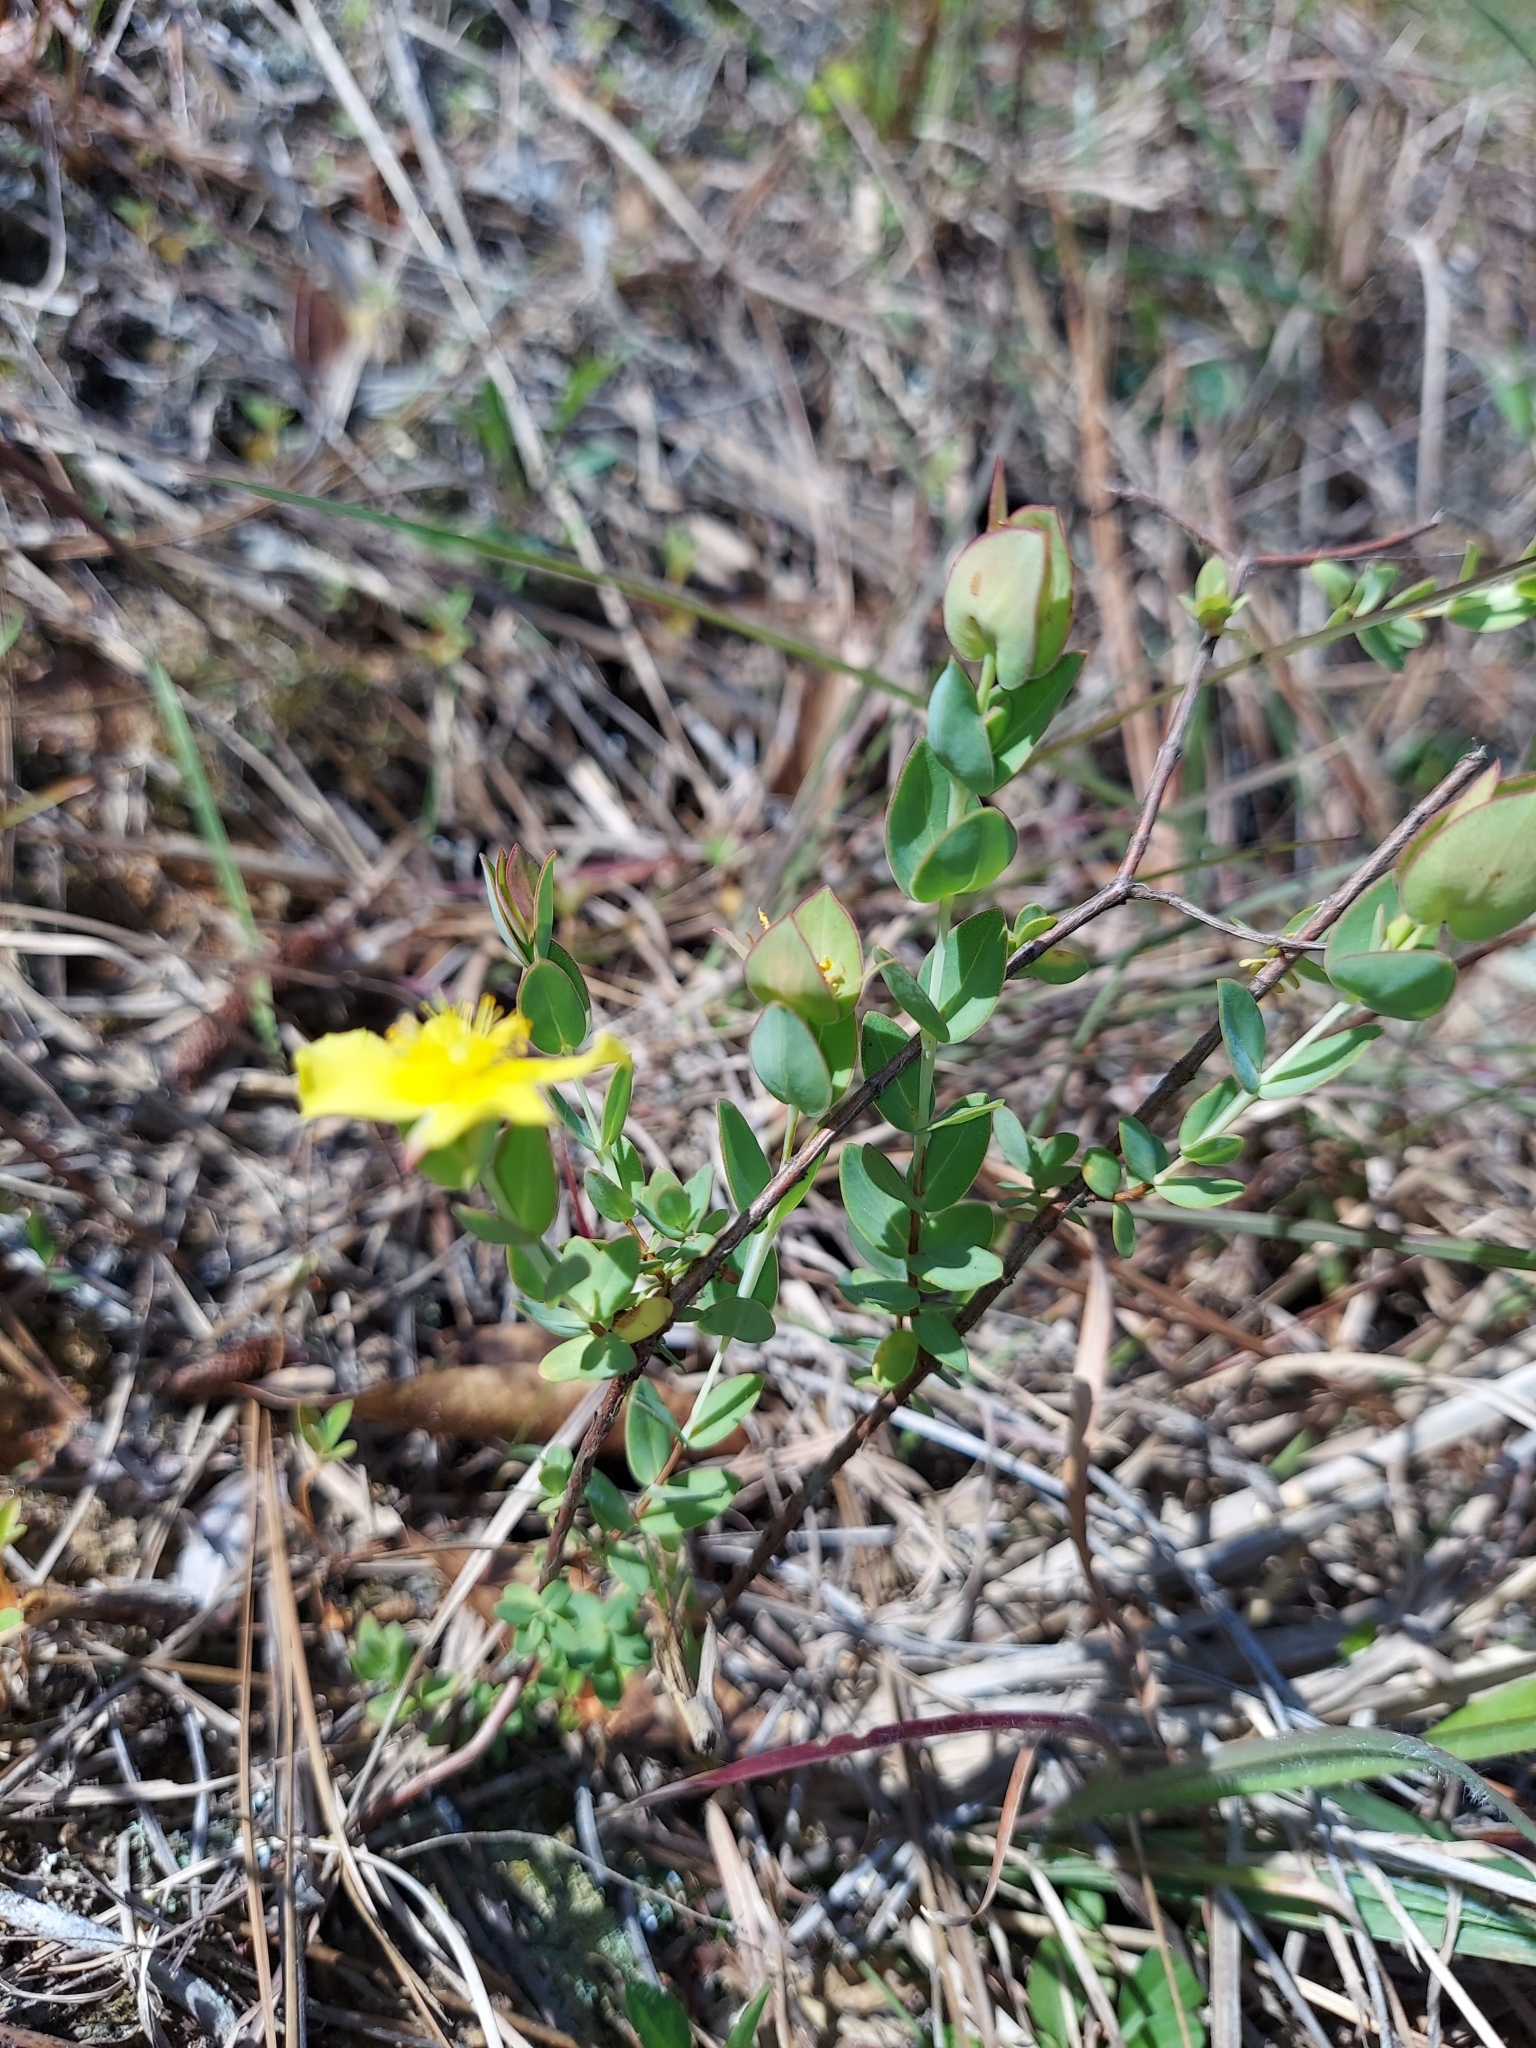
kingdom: Plantae
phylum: Tracheophyta
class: Magnoliopsida
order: Malpighiales
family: Hypericaceae
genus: Hypericum
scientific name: Hypericum tetrapetalum
